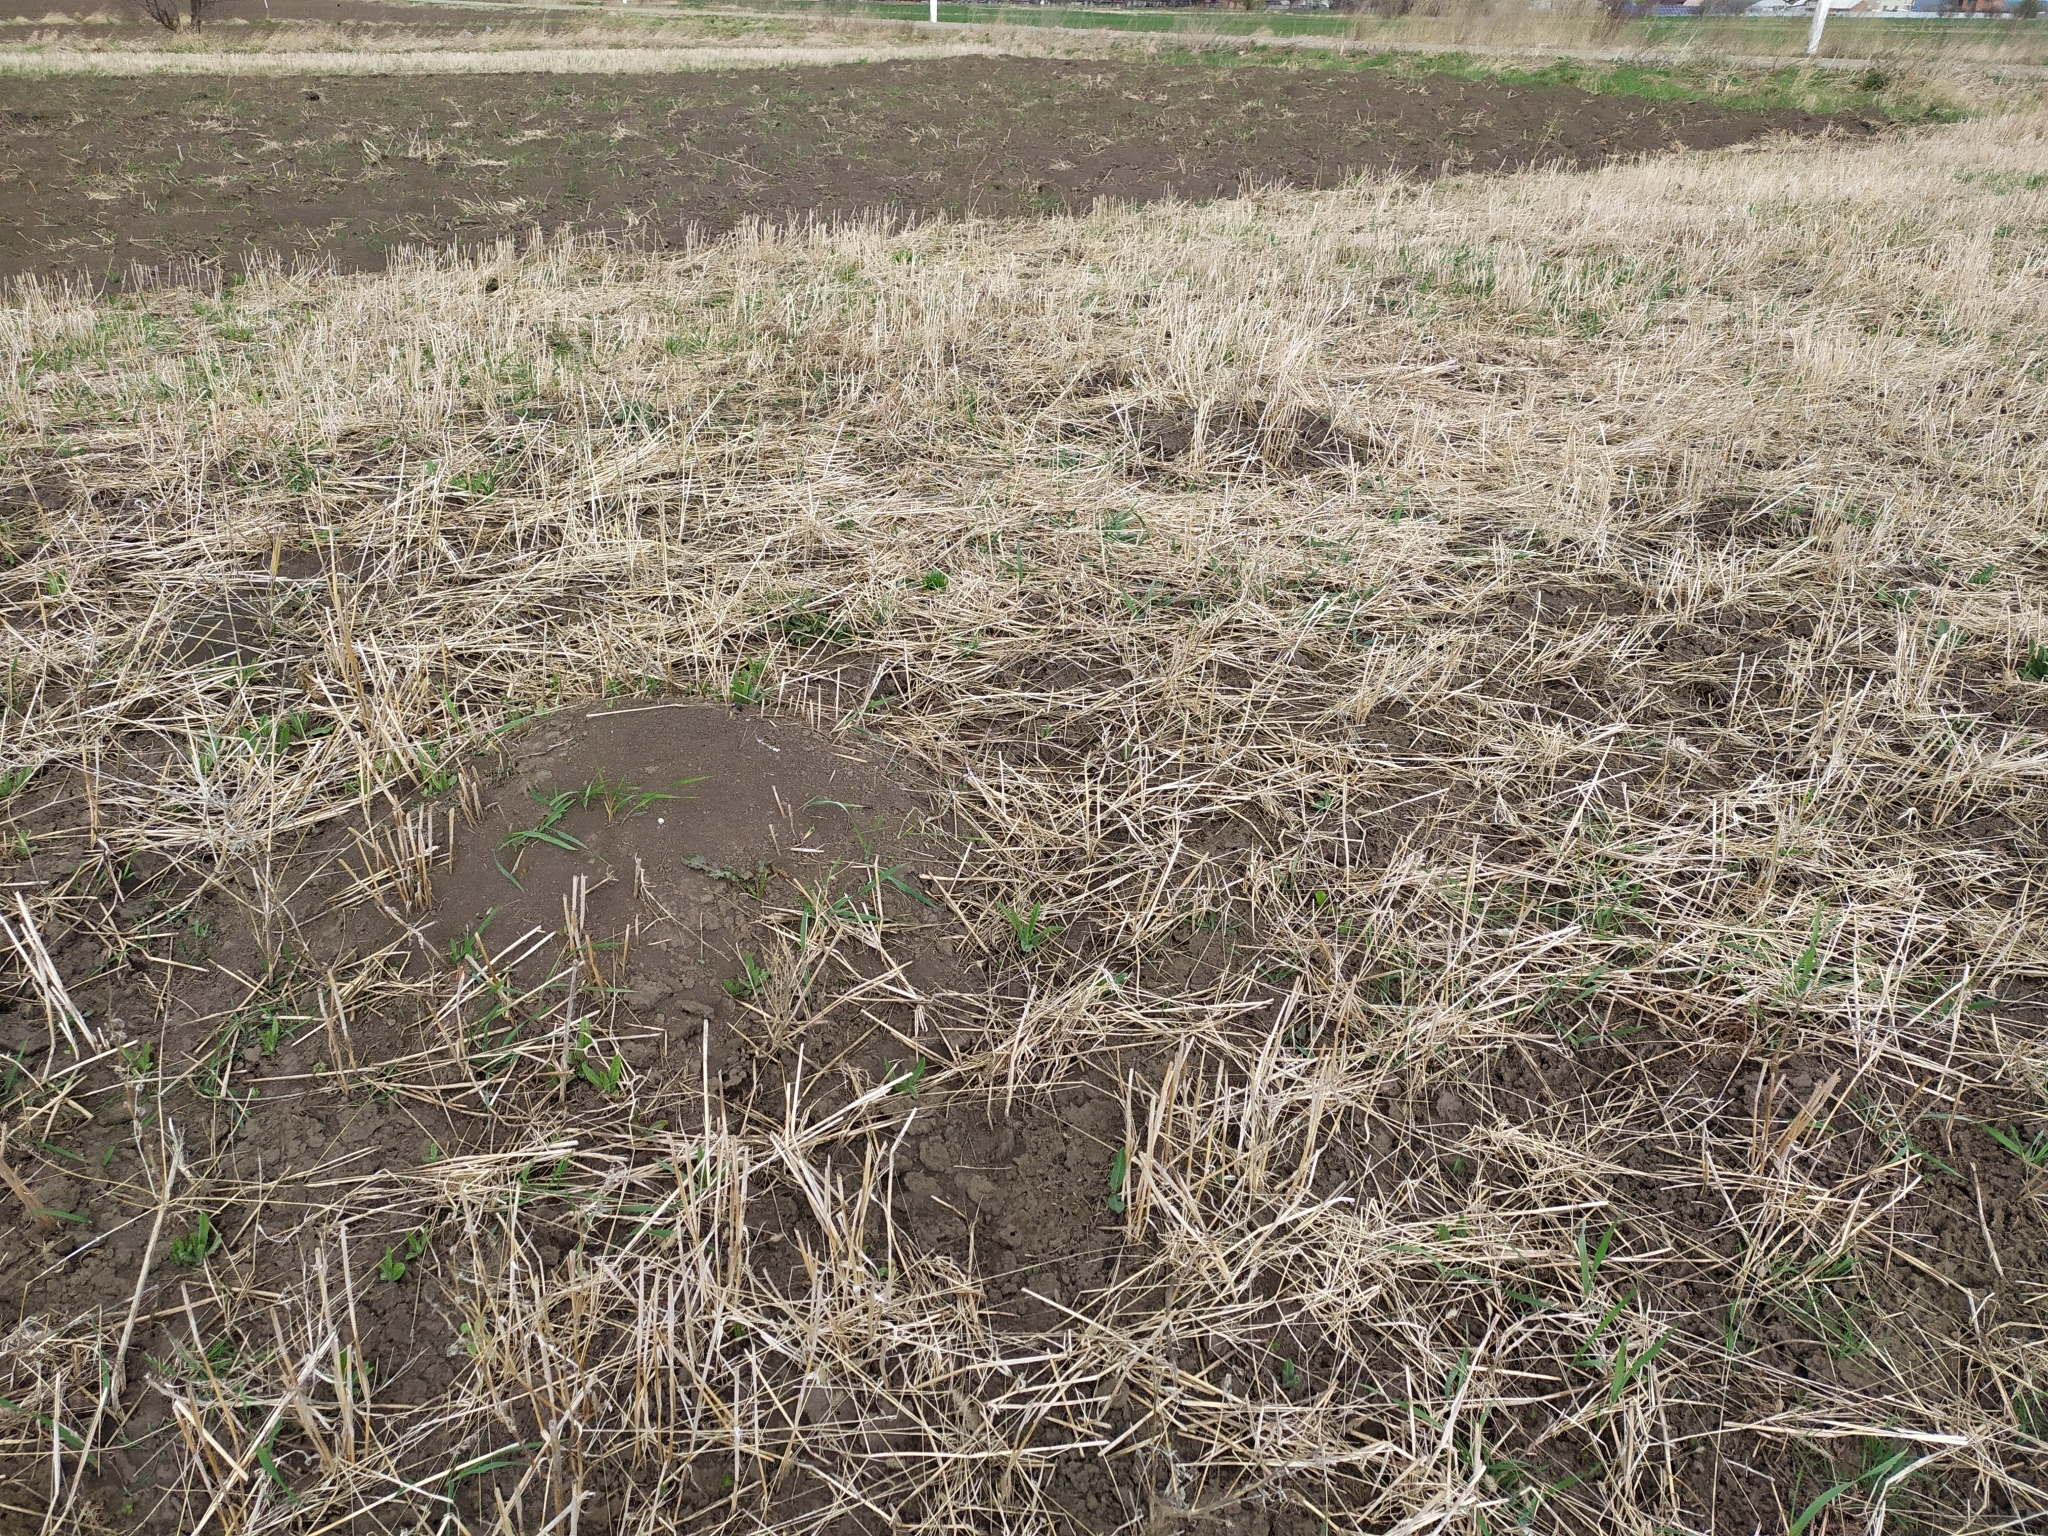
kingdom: Animalia
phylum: Chordata
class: Mammalia
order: Rodentia
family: Muridae
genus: Mus
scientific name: Mus spicilegus
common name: Mound-building mouse
